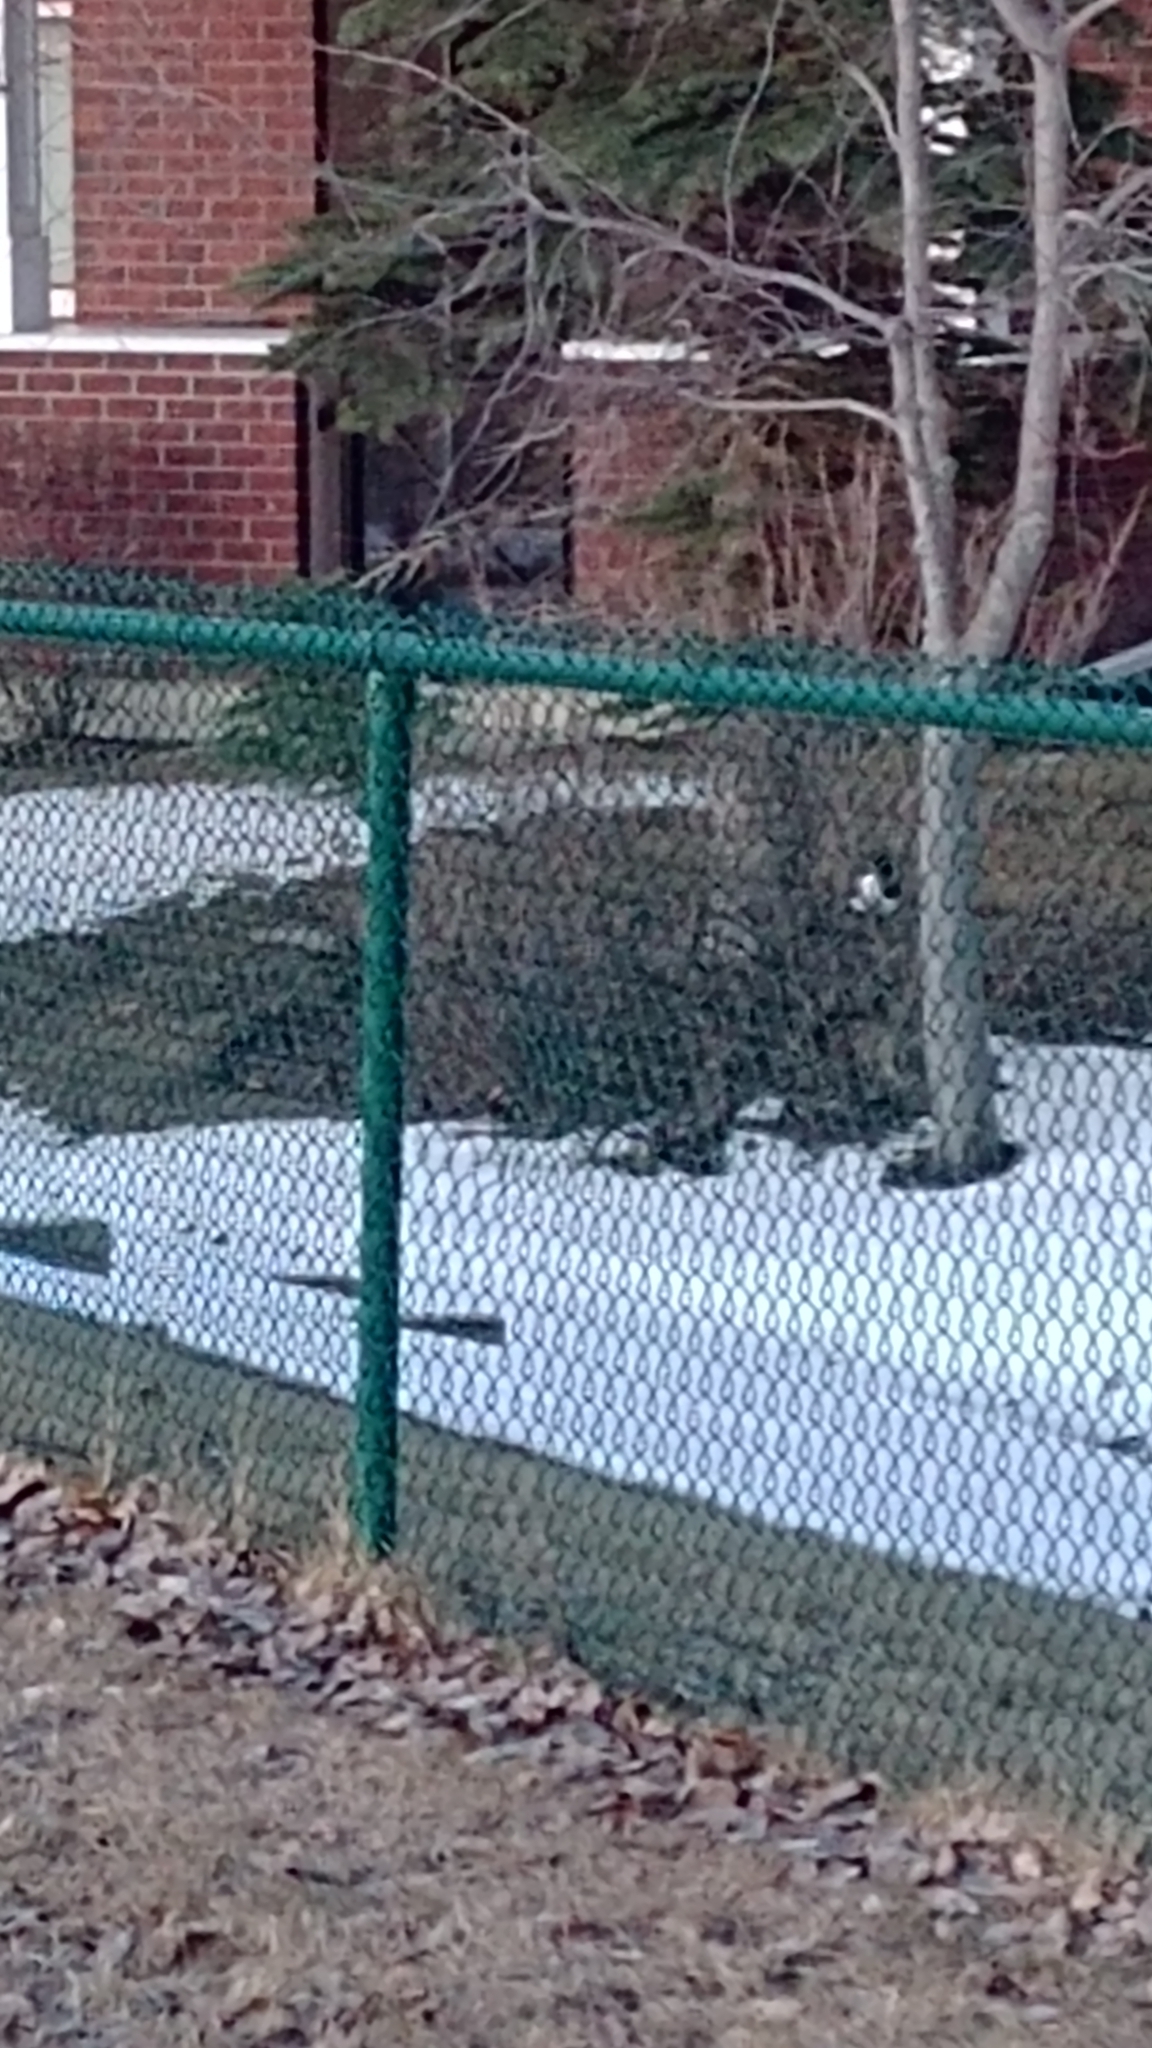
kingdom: Animalia
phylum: Chordata
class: Aves
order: Passeriformes
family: Corvidae
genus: Pica
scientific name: Pica hudsonia
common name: Black-billed magpie
